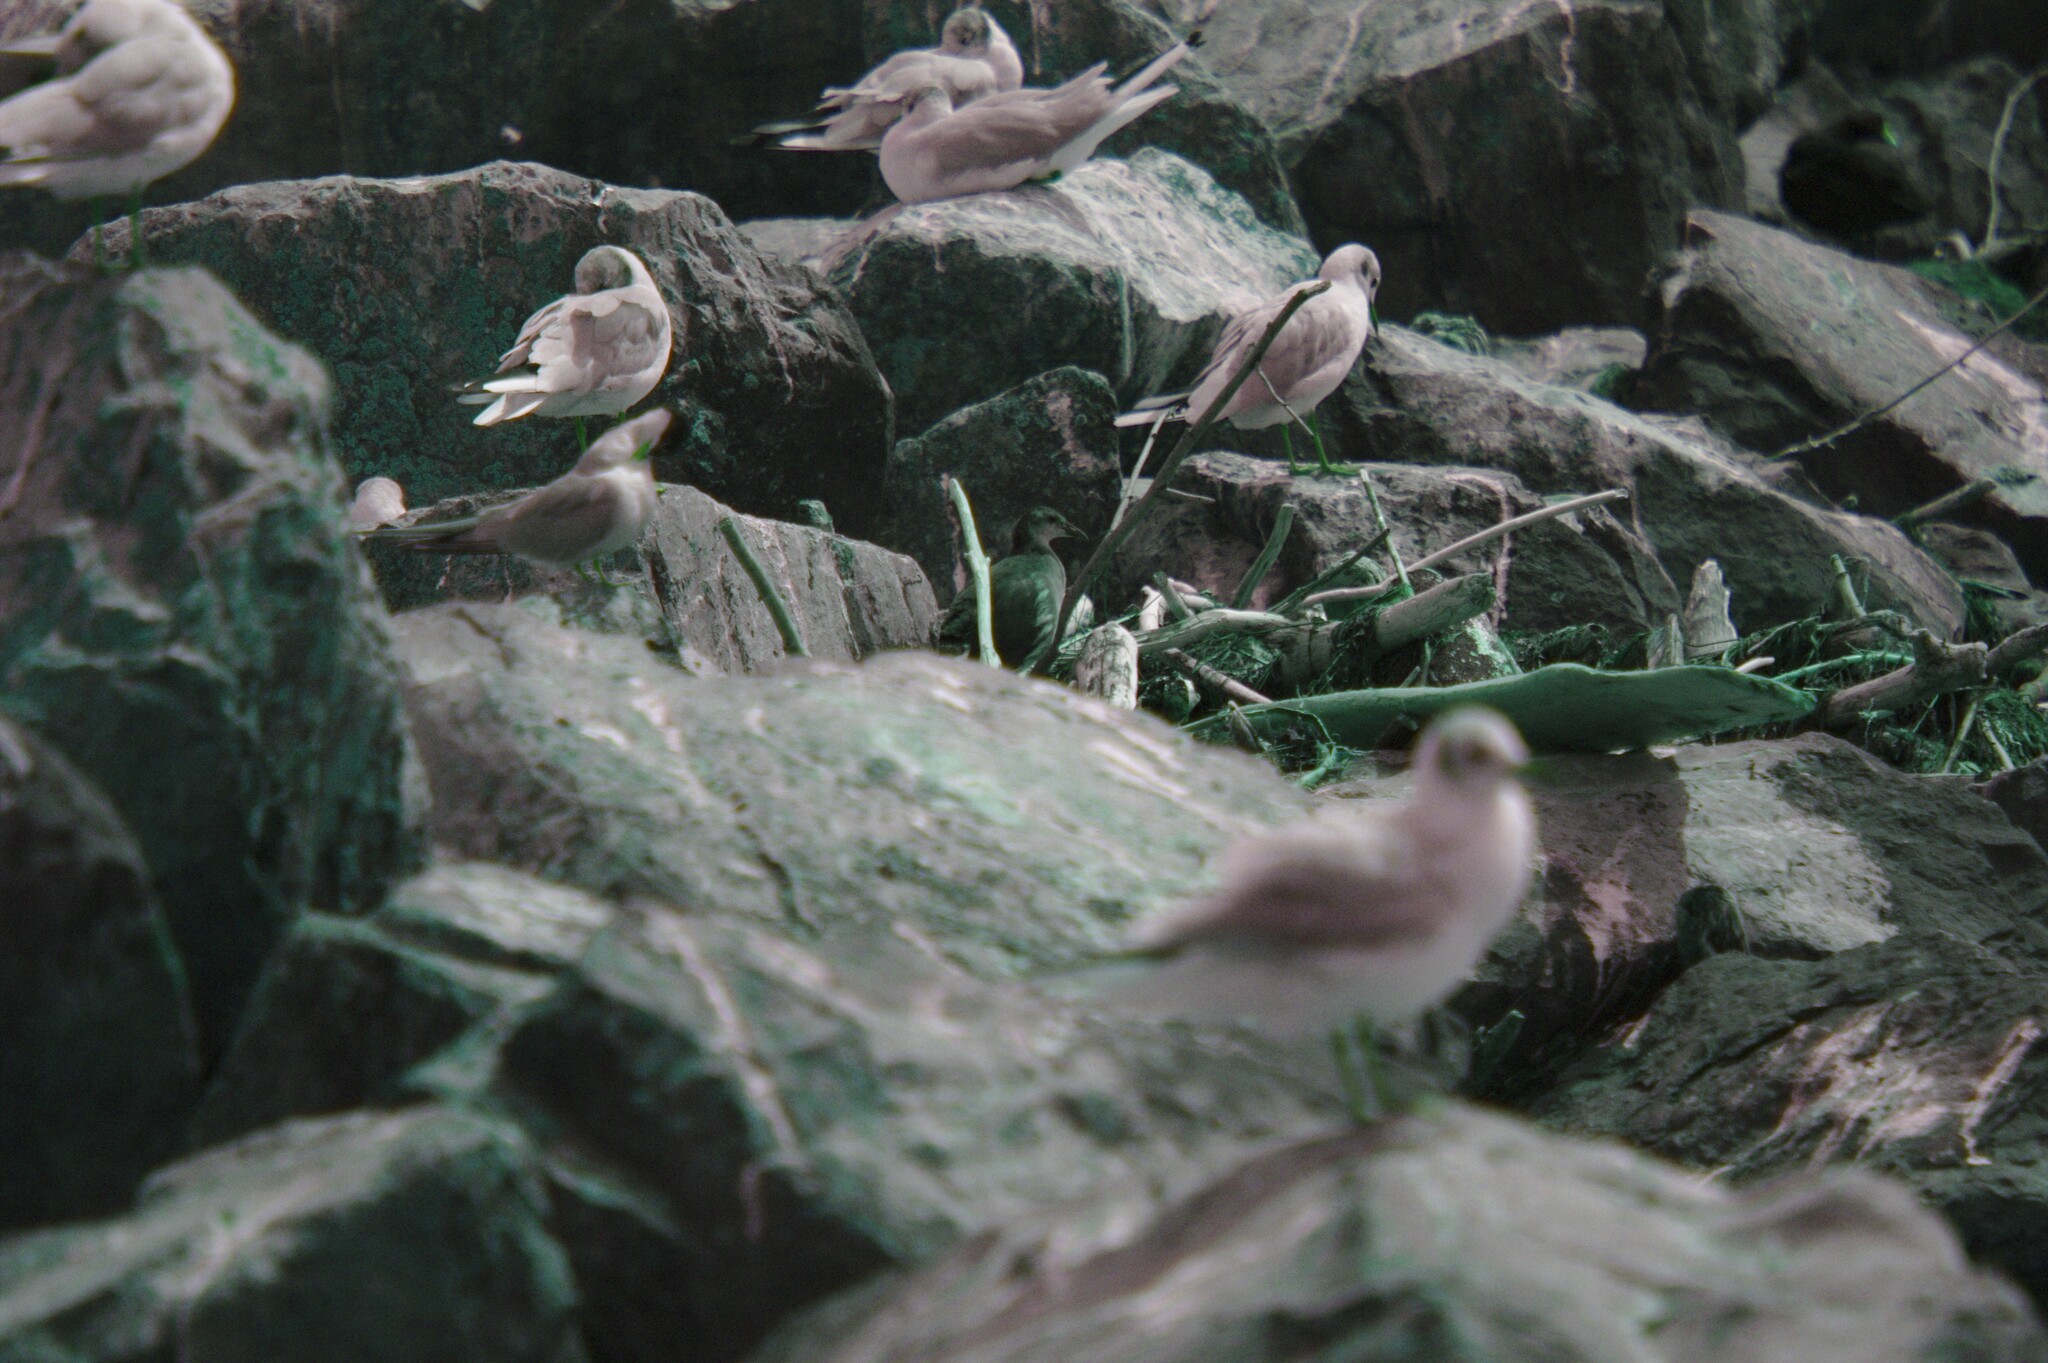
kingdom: Animalia
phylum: Chordata
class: Aves
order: Gruiformes
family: Rallidae
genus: Gallinula
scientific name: Gallinula chloropus
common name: Common moorhen
